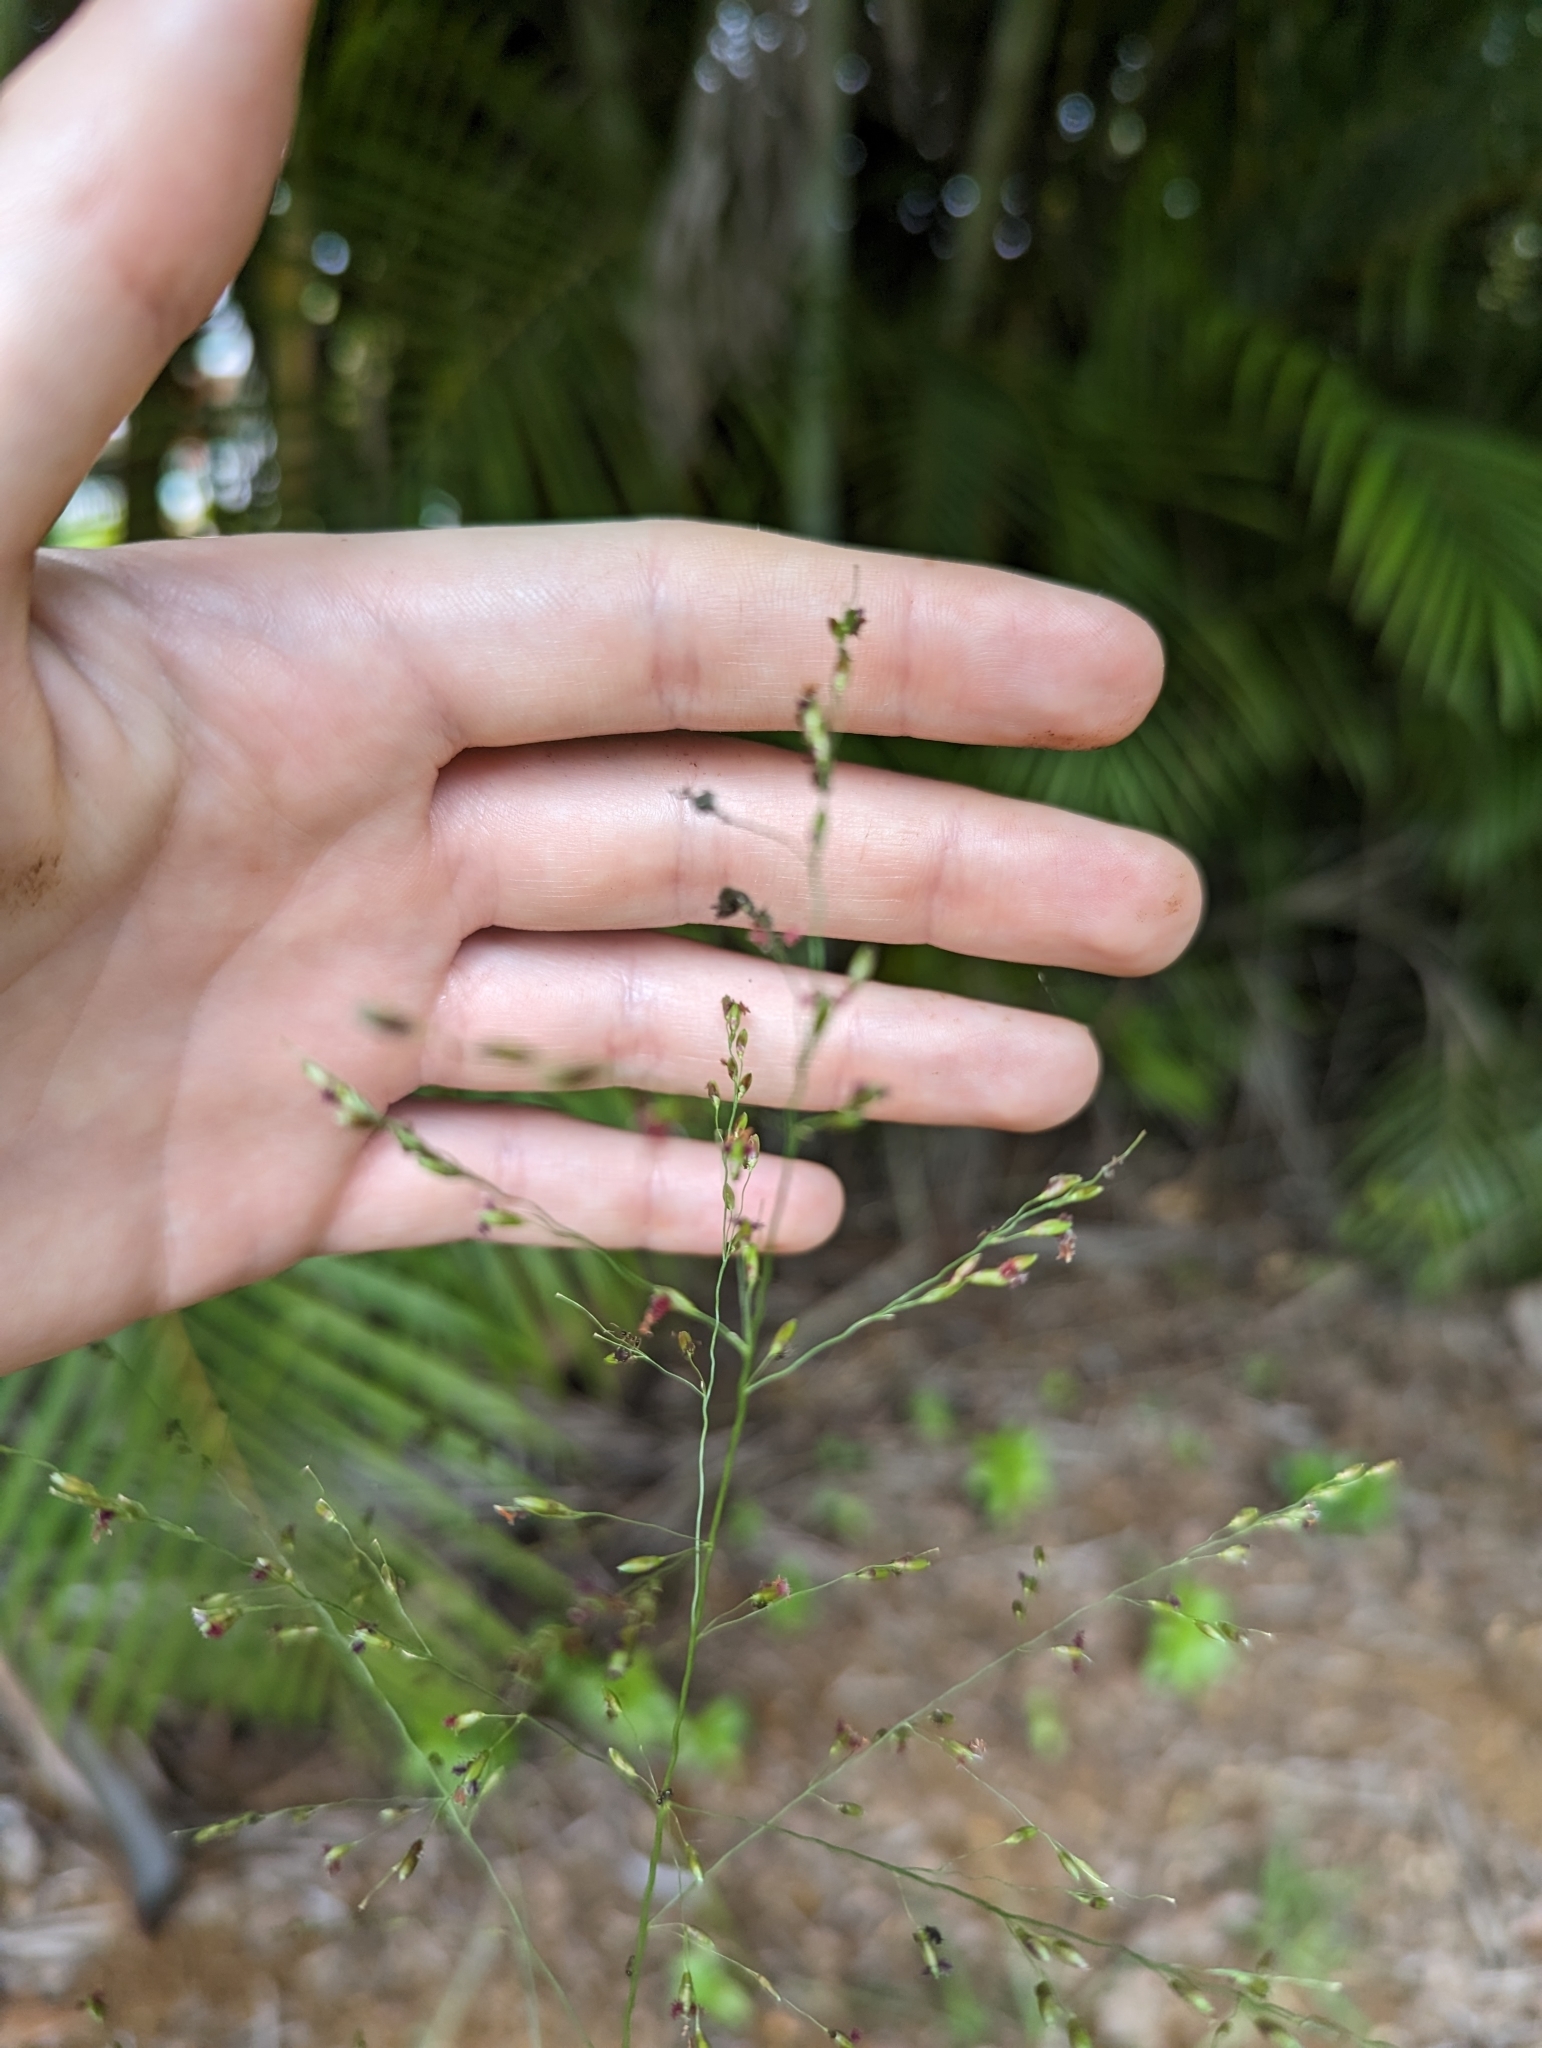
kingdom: Plantae
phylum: Tracheophyta
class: Liliopsida
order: Poales
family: Poaceae
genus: Megathyrsus
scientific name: Megathyrsus maximus
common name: Guineagrass
